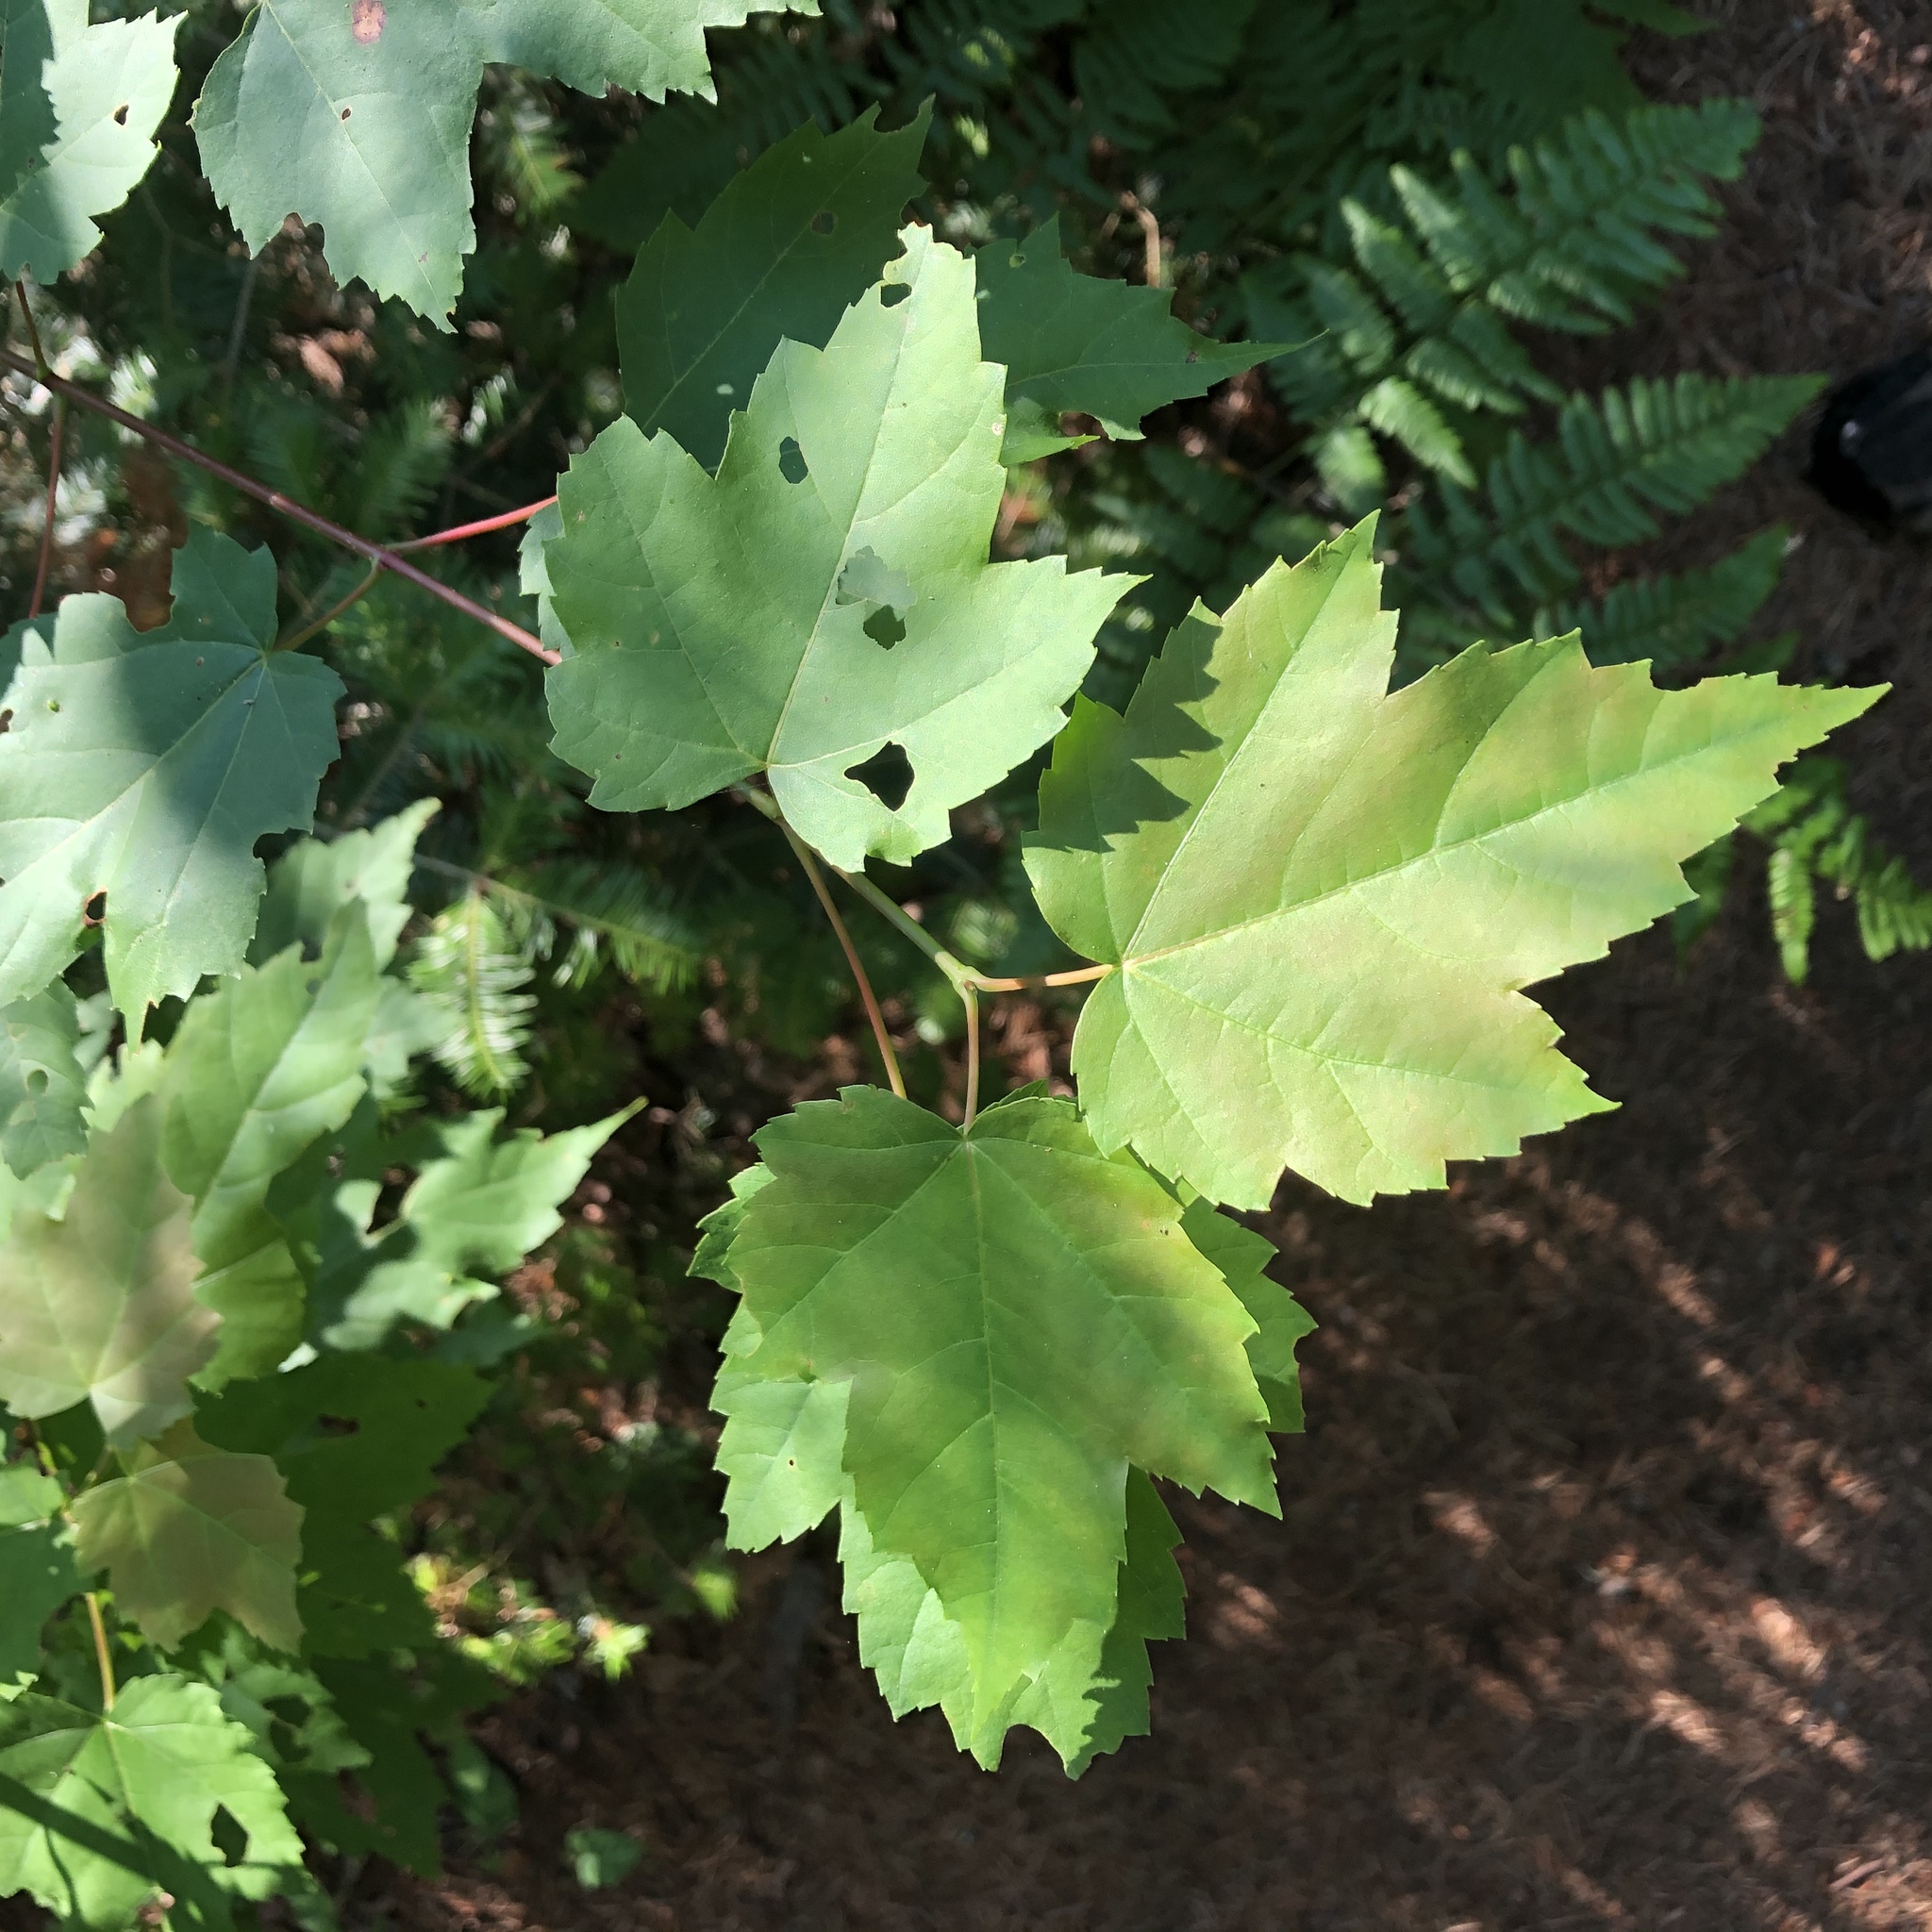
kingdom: Plantae
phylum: Tracheophyta
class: Magnoliopsida
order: Sapindales
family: Sapindaceae
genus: Acer
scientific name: Acer rubrum
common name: Red maple
